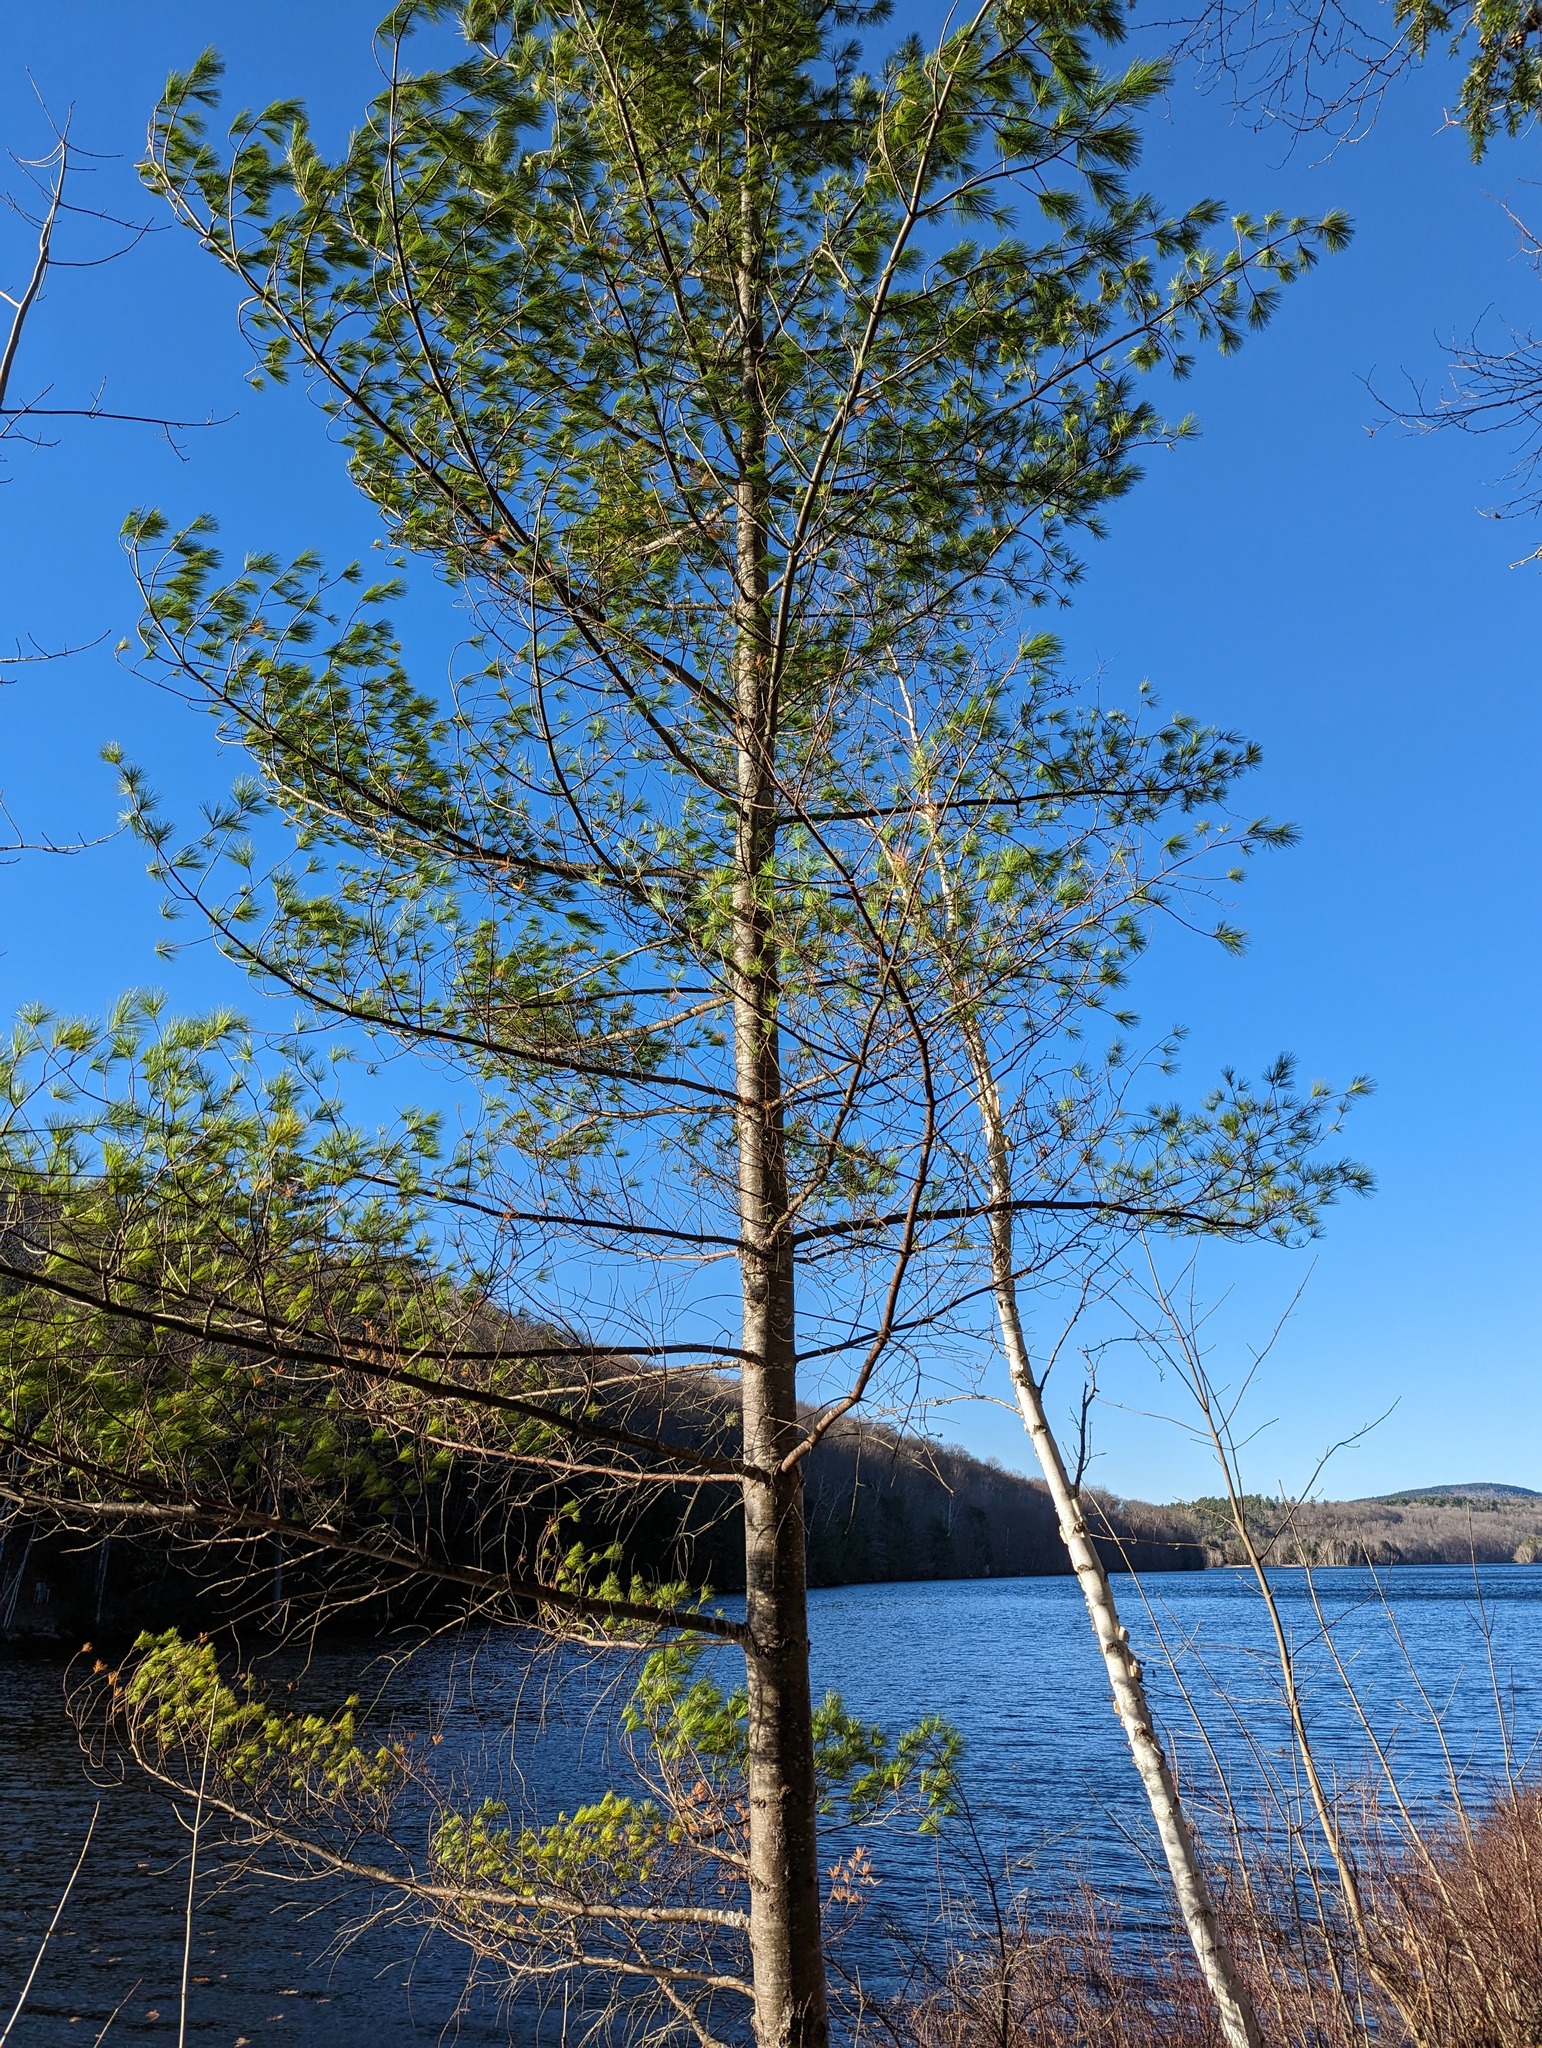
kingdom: Plantae
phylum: Tracheophyta
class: Pinopsida
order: Pinales
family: Pinaceae
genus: Pinus
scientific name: Pinus strobus
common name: Weymouth pine
